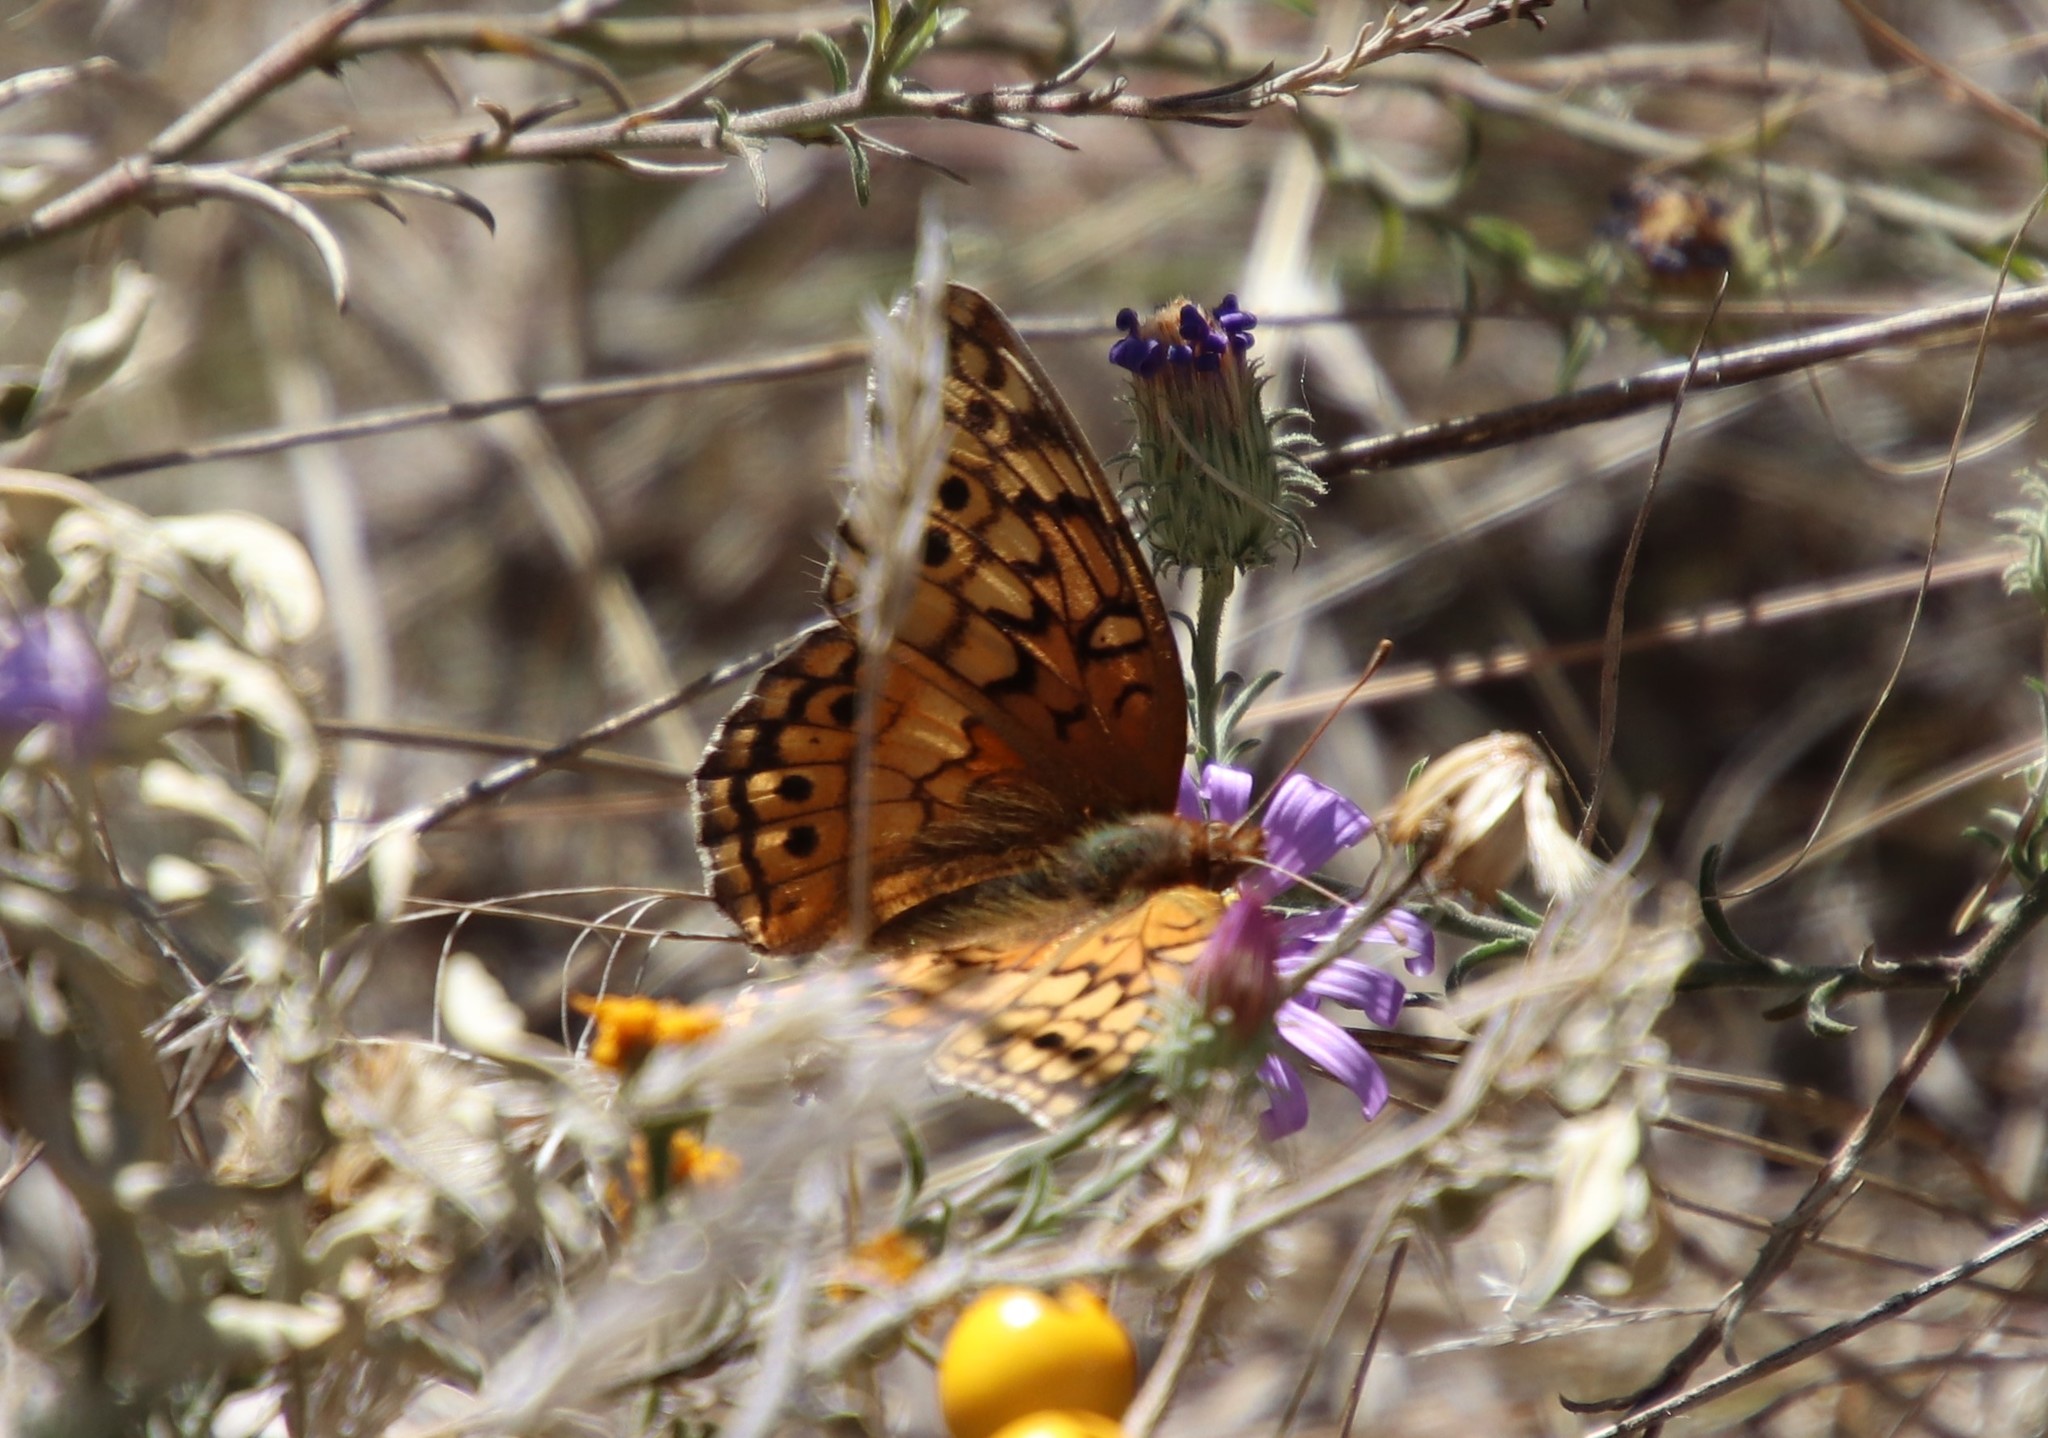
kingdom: Animalia
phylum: Arthropoda
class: Insecta
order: Lepidoptera
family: Nymphalidae
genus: Euptoieta
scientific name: Euptoieta claudia
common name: Variegated fritillary
